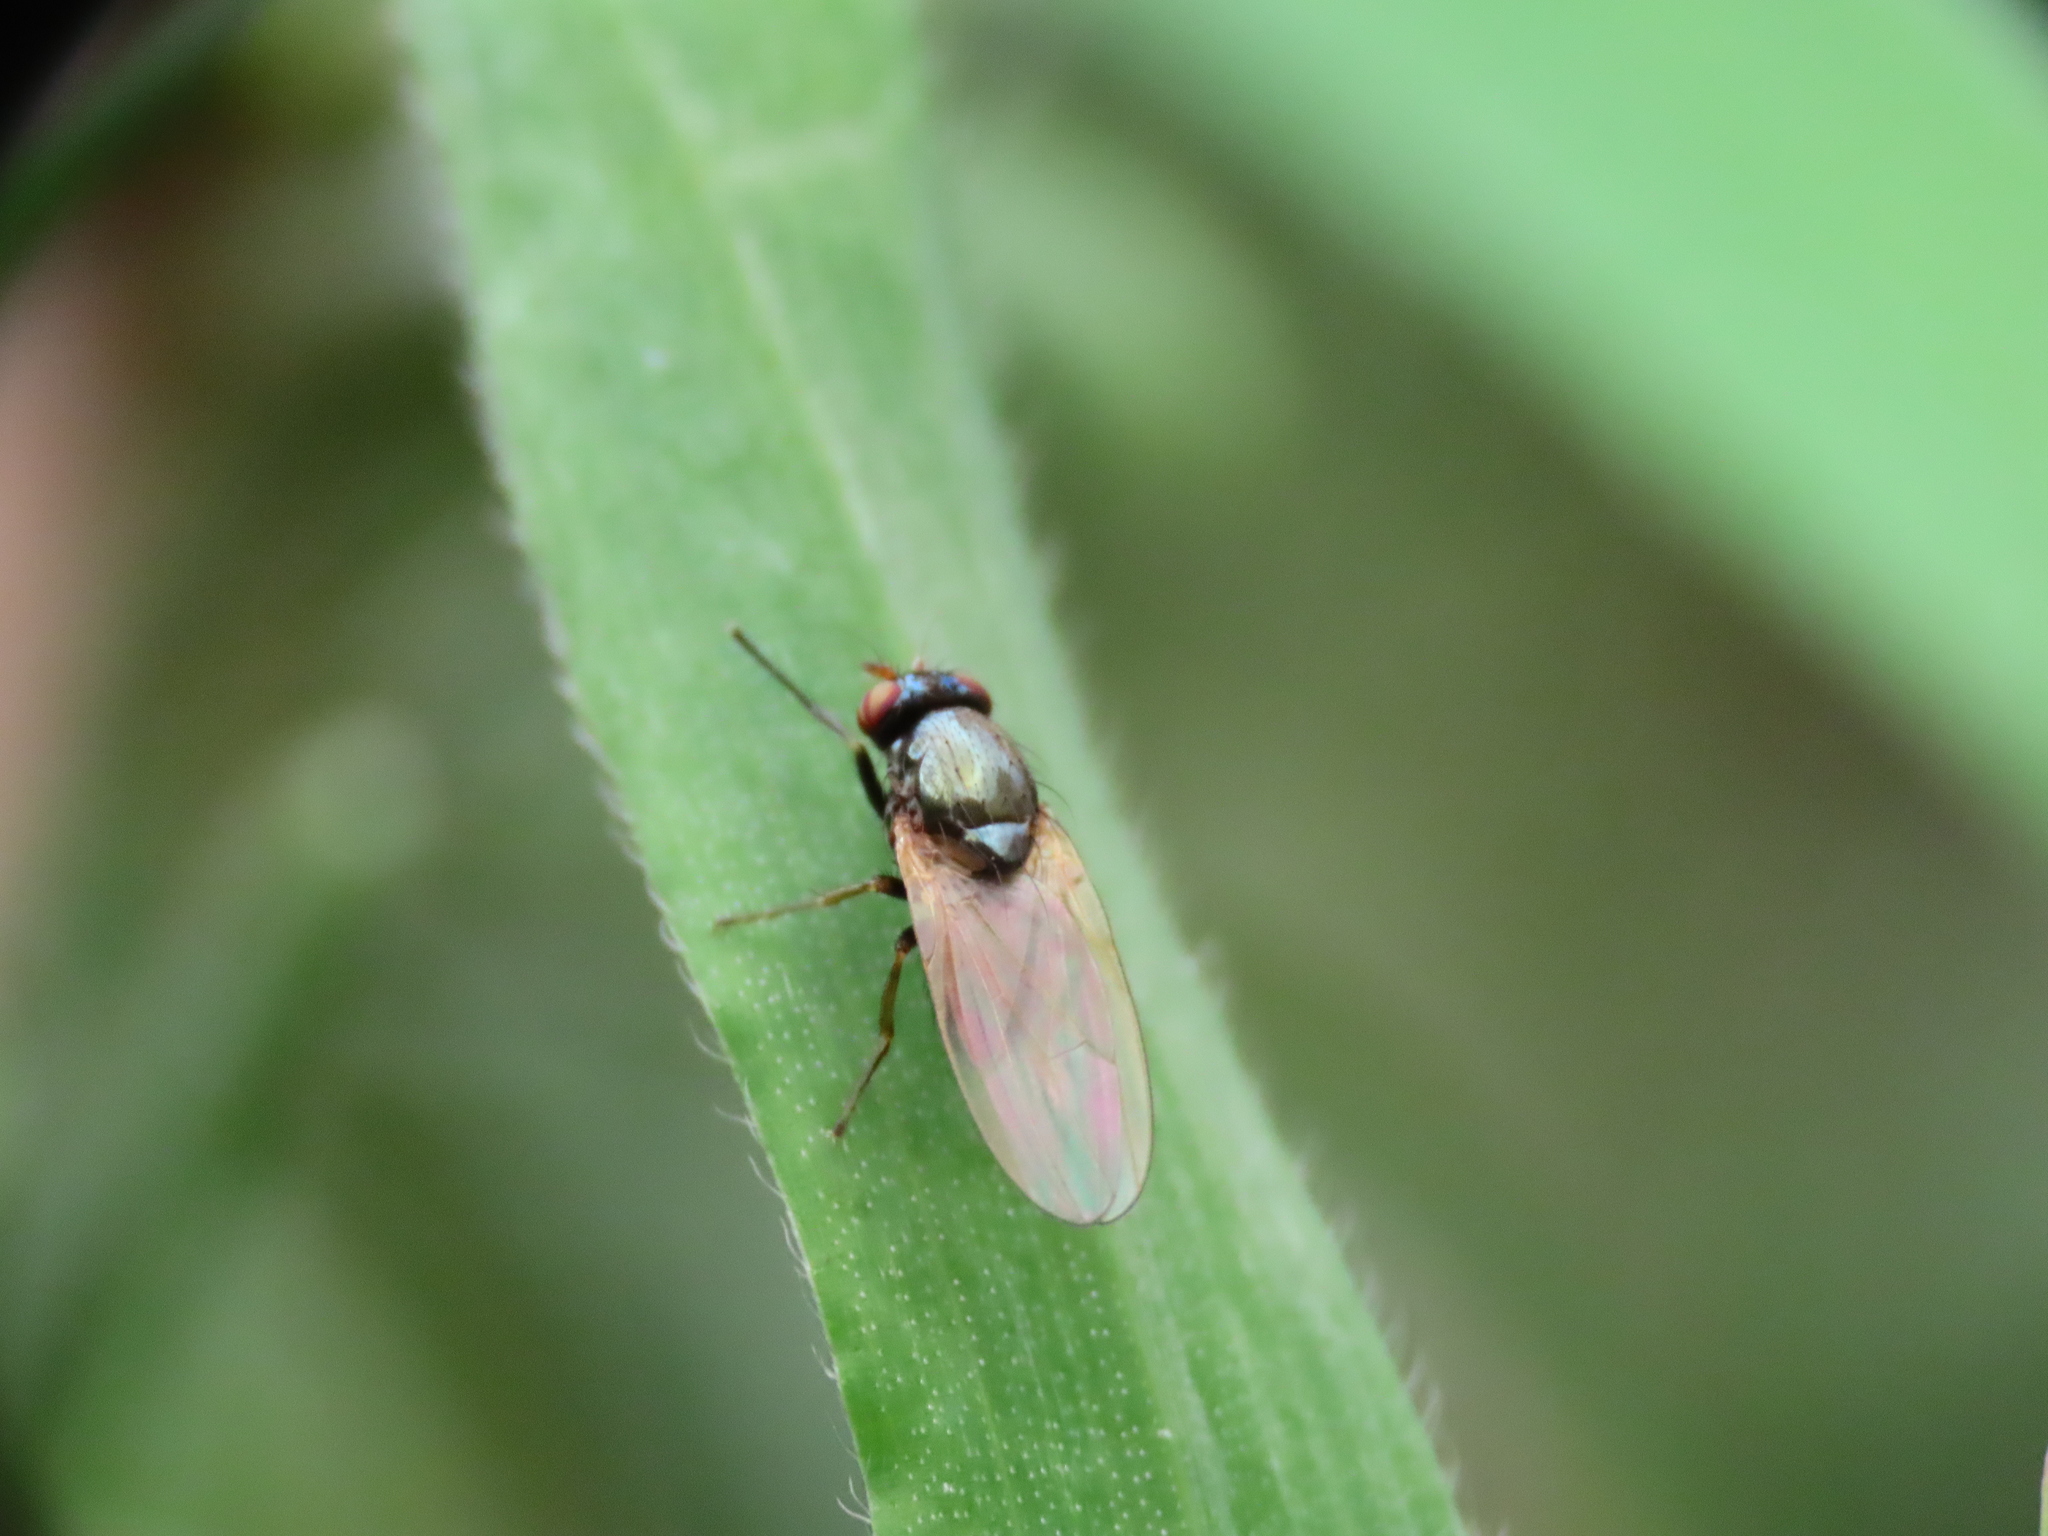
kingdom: Animalia
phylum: Arthropoda
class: Insecta
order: Diptera
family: Lauxaniidae
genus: Calliopum
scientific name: Calliopum
